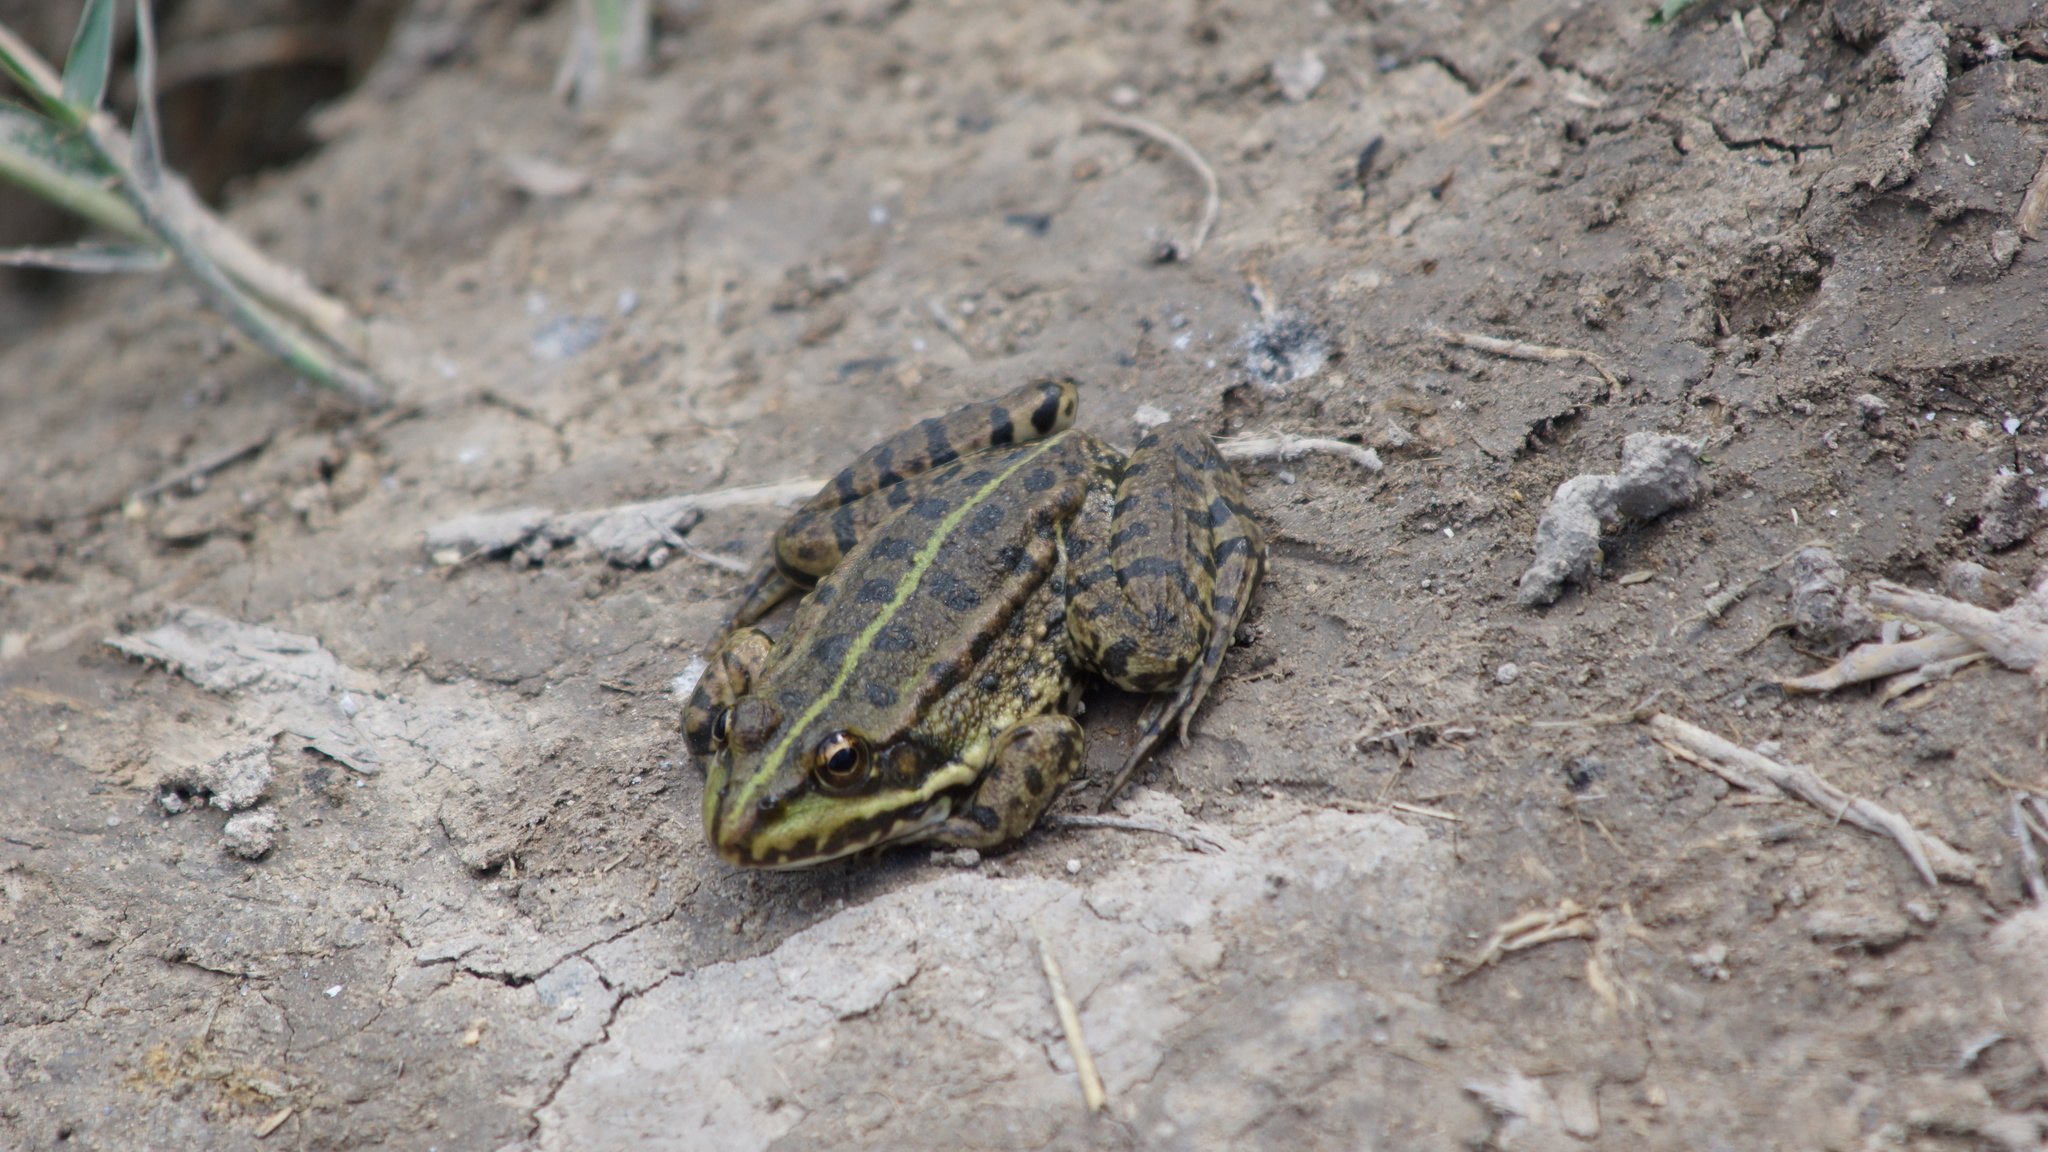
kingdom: Animalia
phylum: Chordata
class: Amphibia
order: Anura
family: Ranidae
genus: Pelophylax
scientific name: Pelophylax ridibundus
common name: Marsh frog
